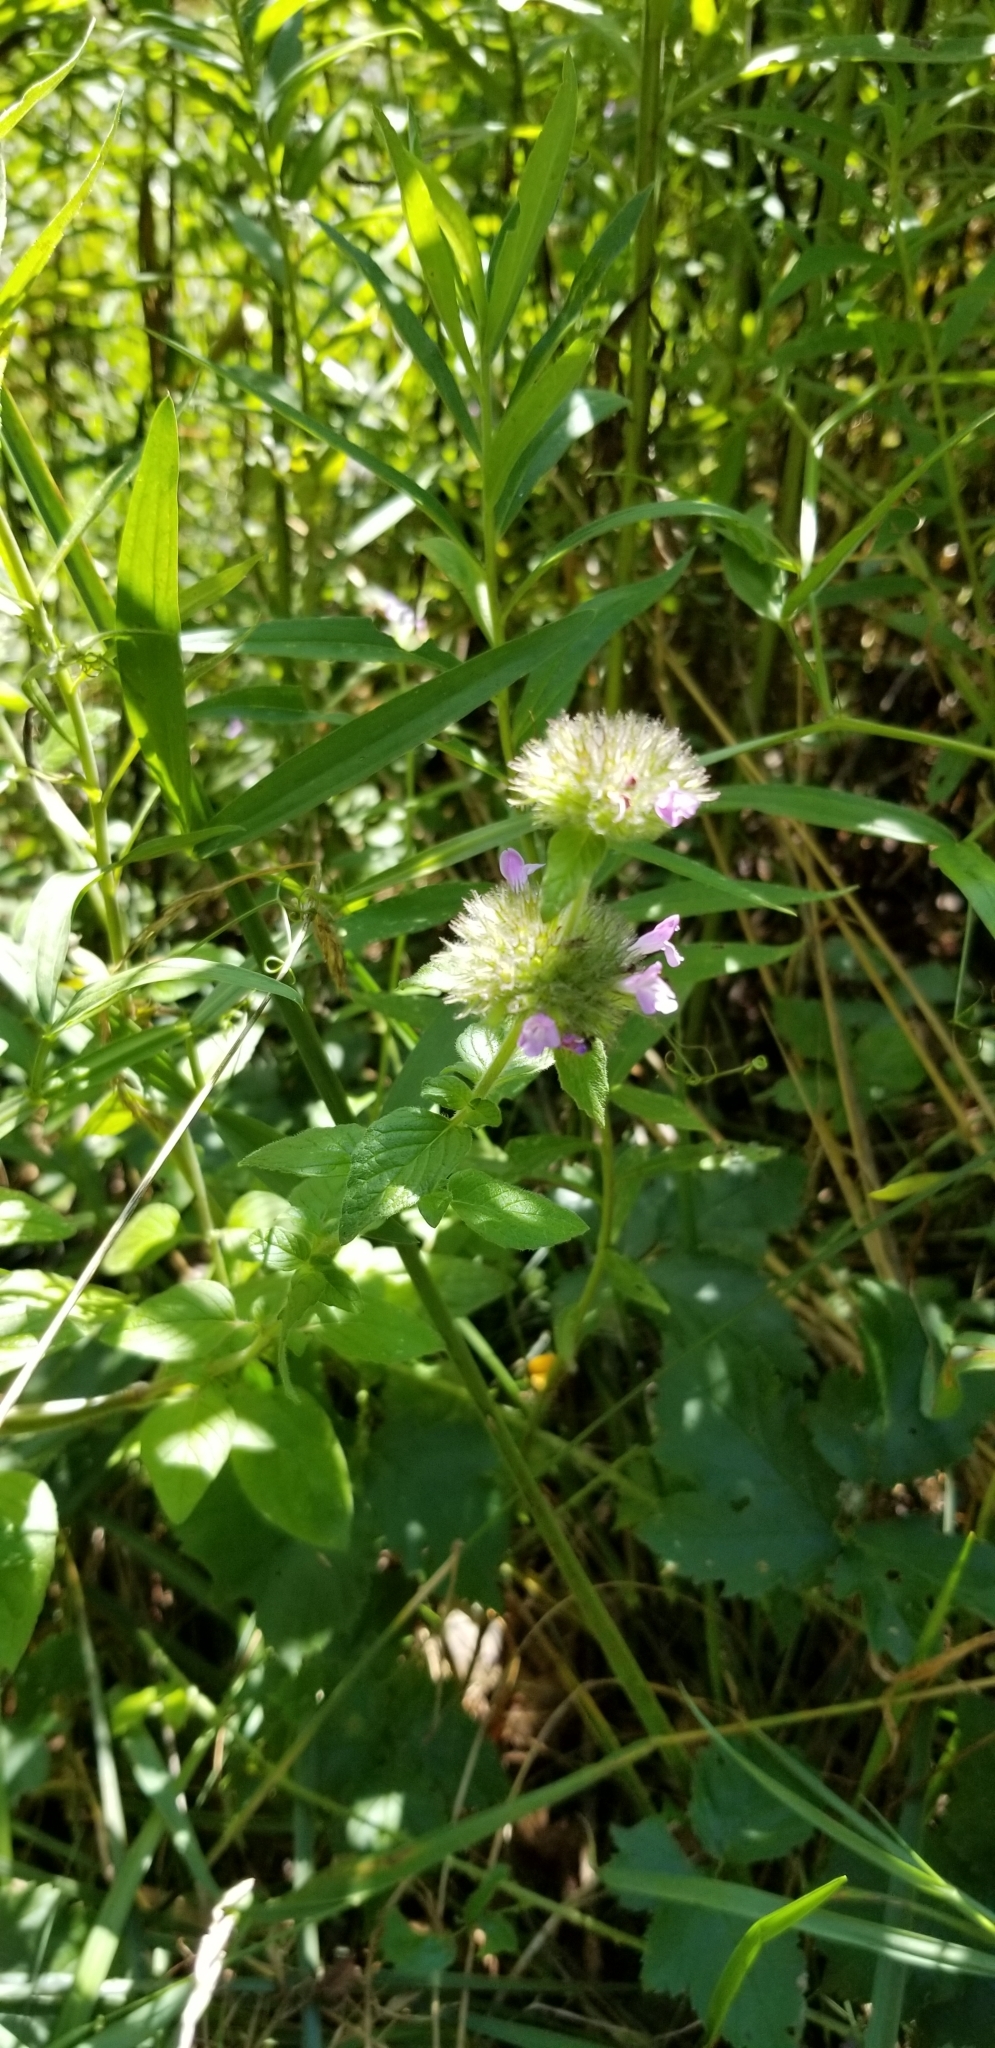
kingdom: Plantae
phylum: Tracheophyta
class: Magnoliopsida
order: Lamiales
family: Lamiaceae
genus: Clinopodium
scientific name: Clinopodium vulgare
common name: Wild basil
